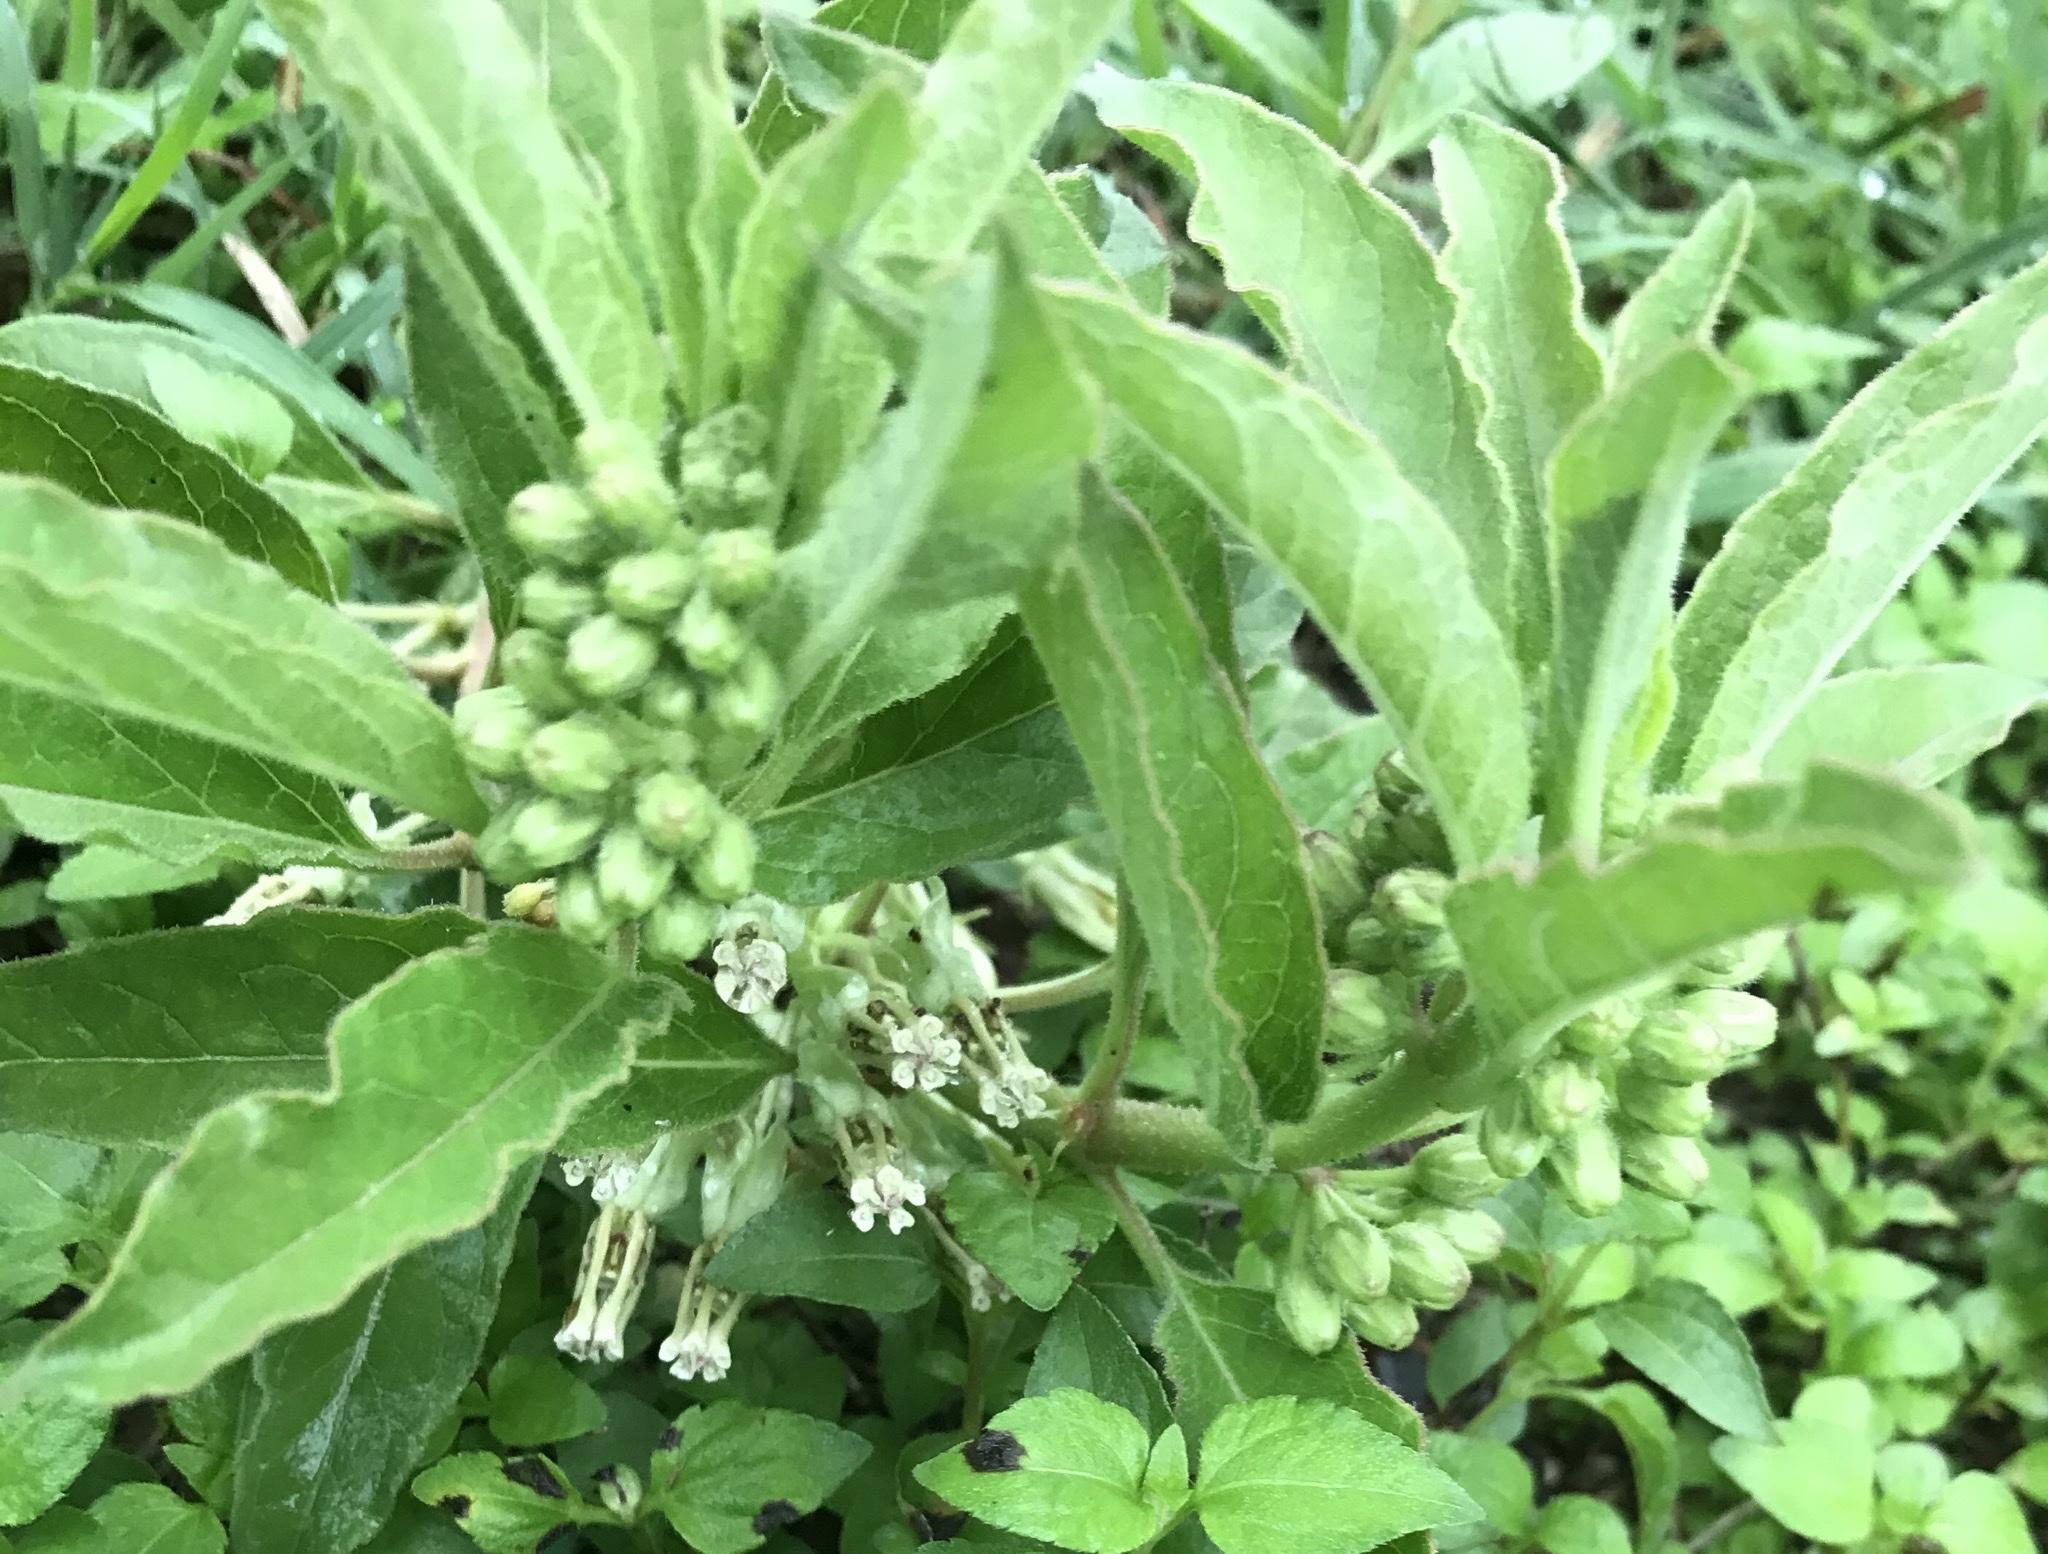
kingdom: Plantae
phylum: Tracheophyta
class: Magnoliopsida
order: Gentianales
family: Apocynaceae
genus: Asclepias
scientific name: Asclepias oenotheroides
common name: Zizotes milkweed
